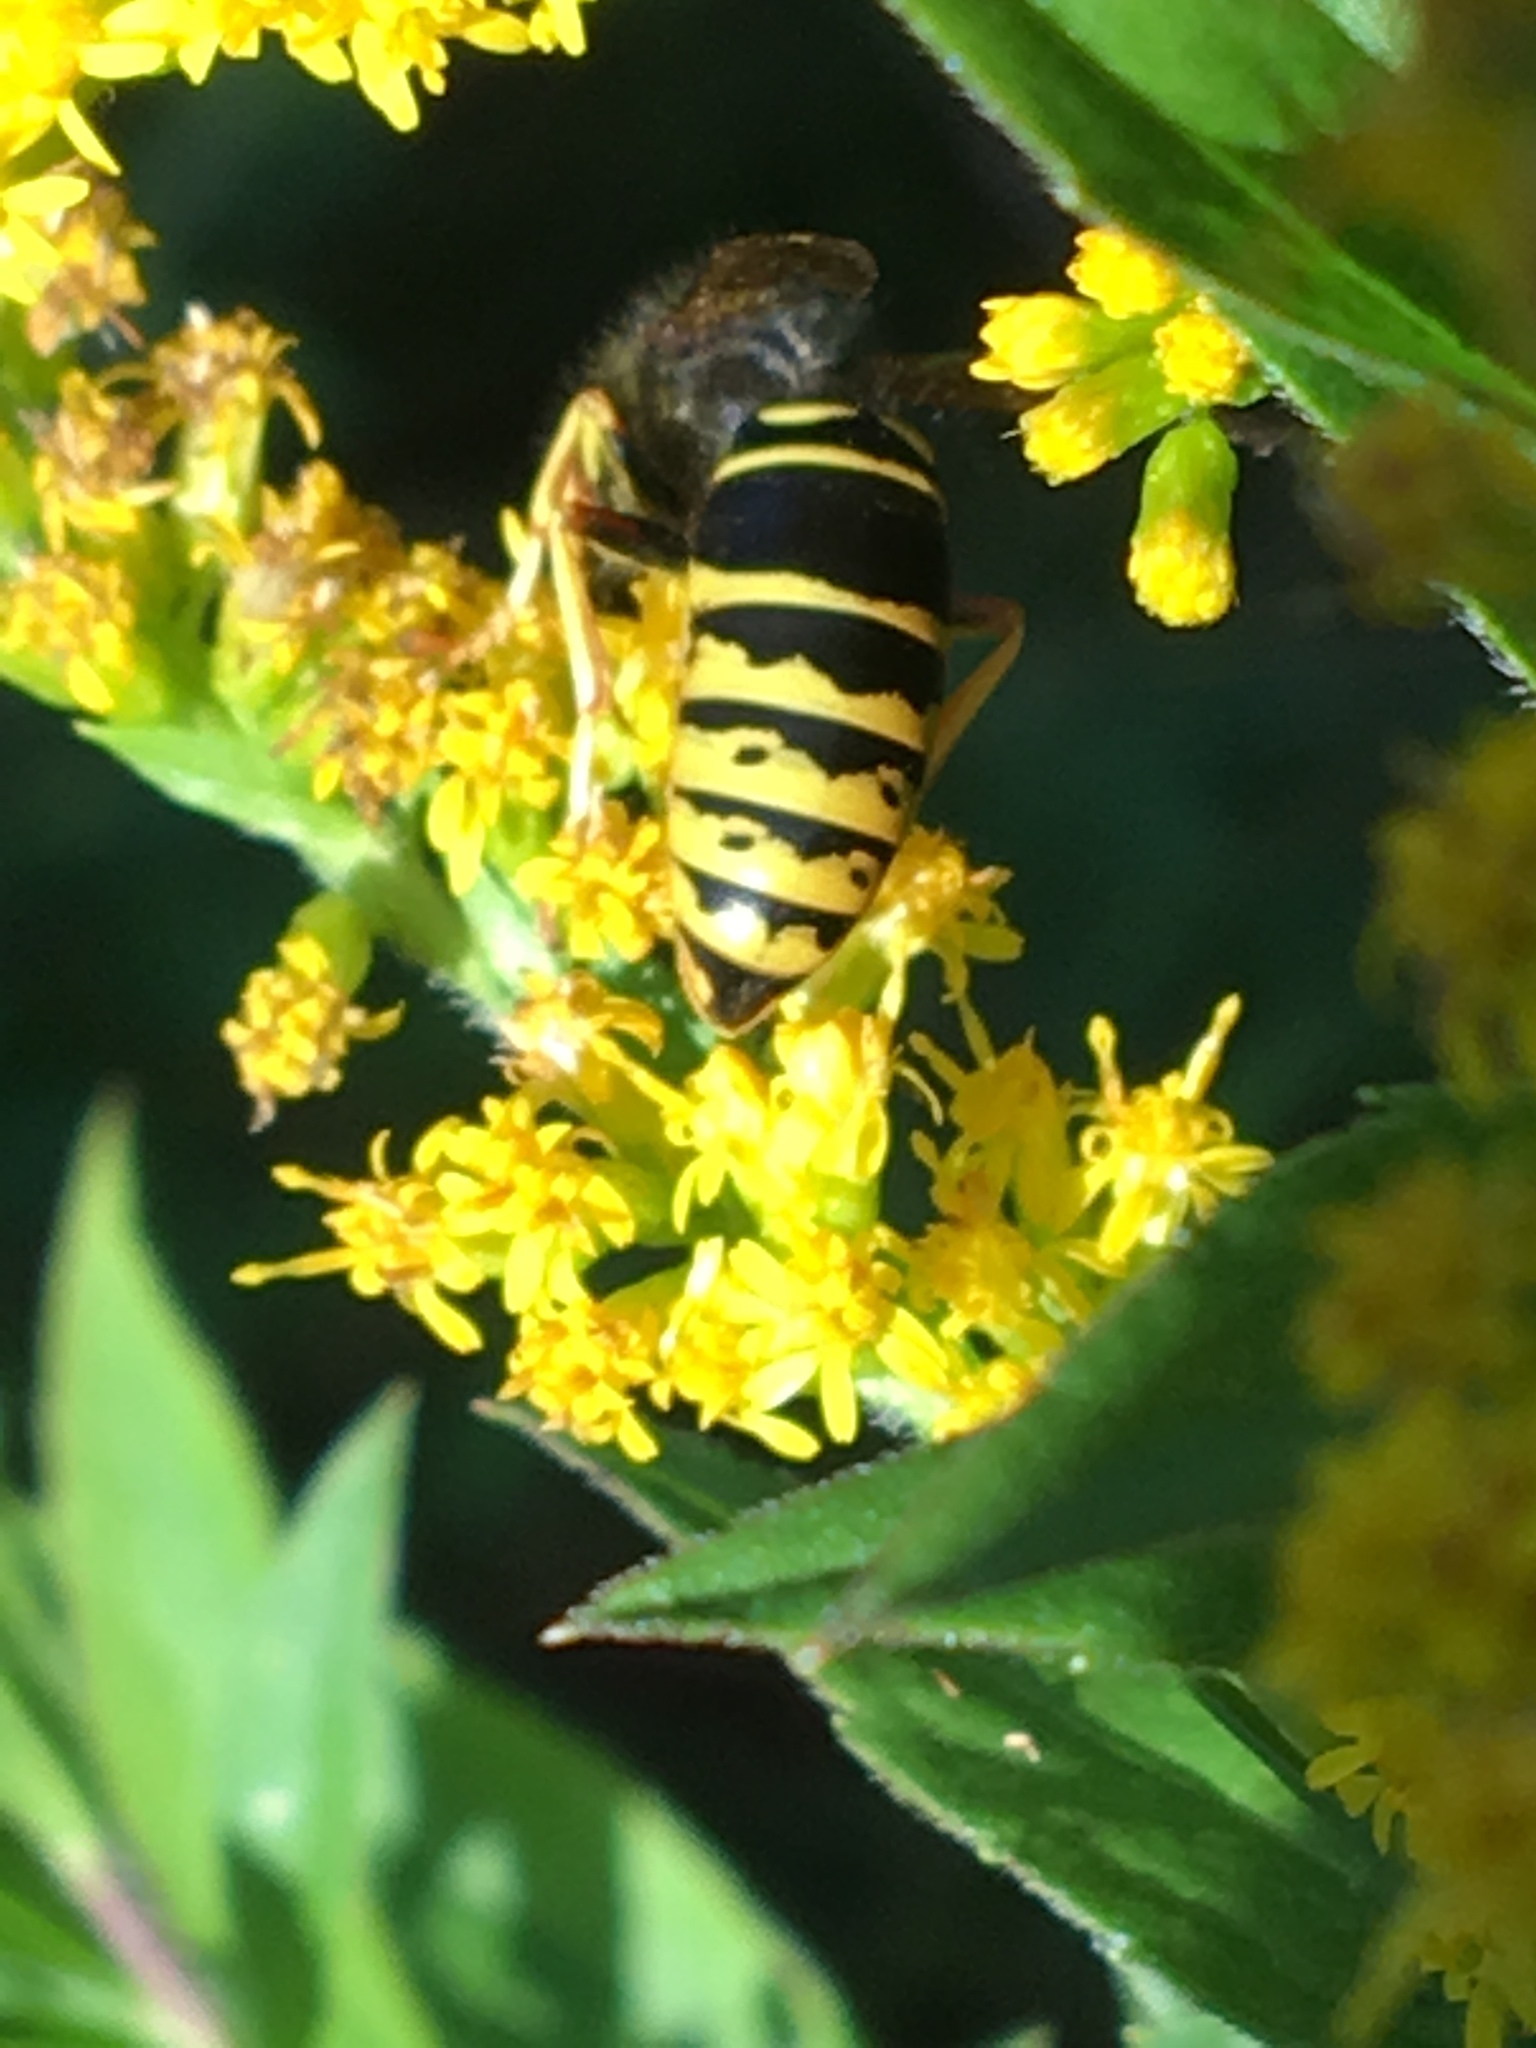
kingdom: Animalia
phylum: Arthropoda
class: Insecta
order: Hymenoptera
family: Vespidae
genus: Vespula
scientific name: Vespula vidua
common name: Widow yellowjacket
